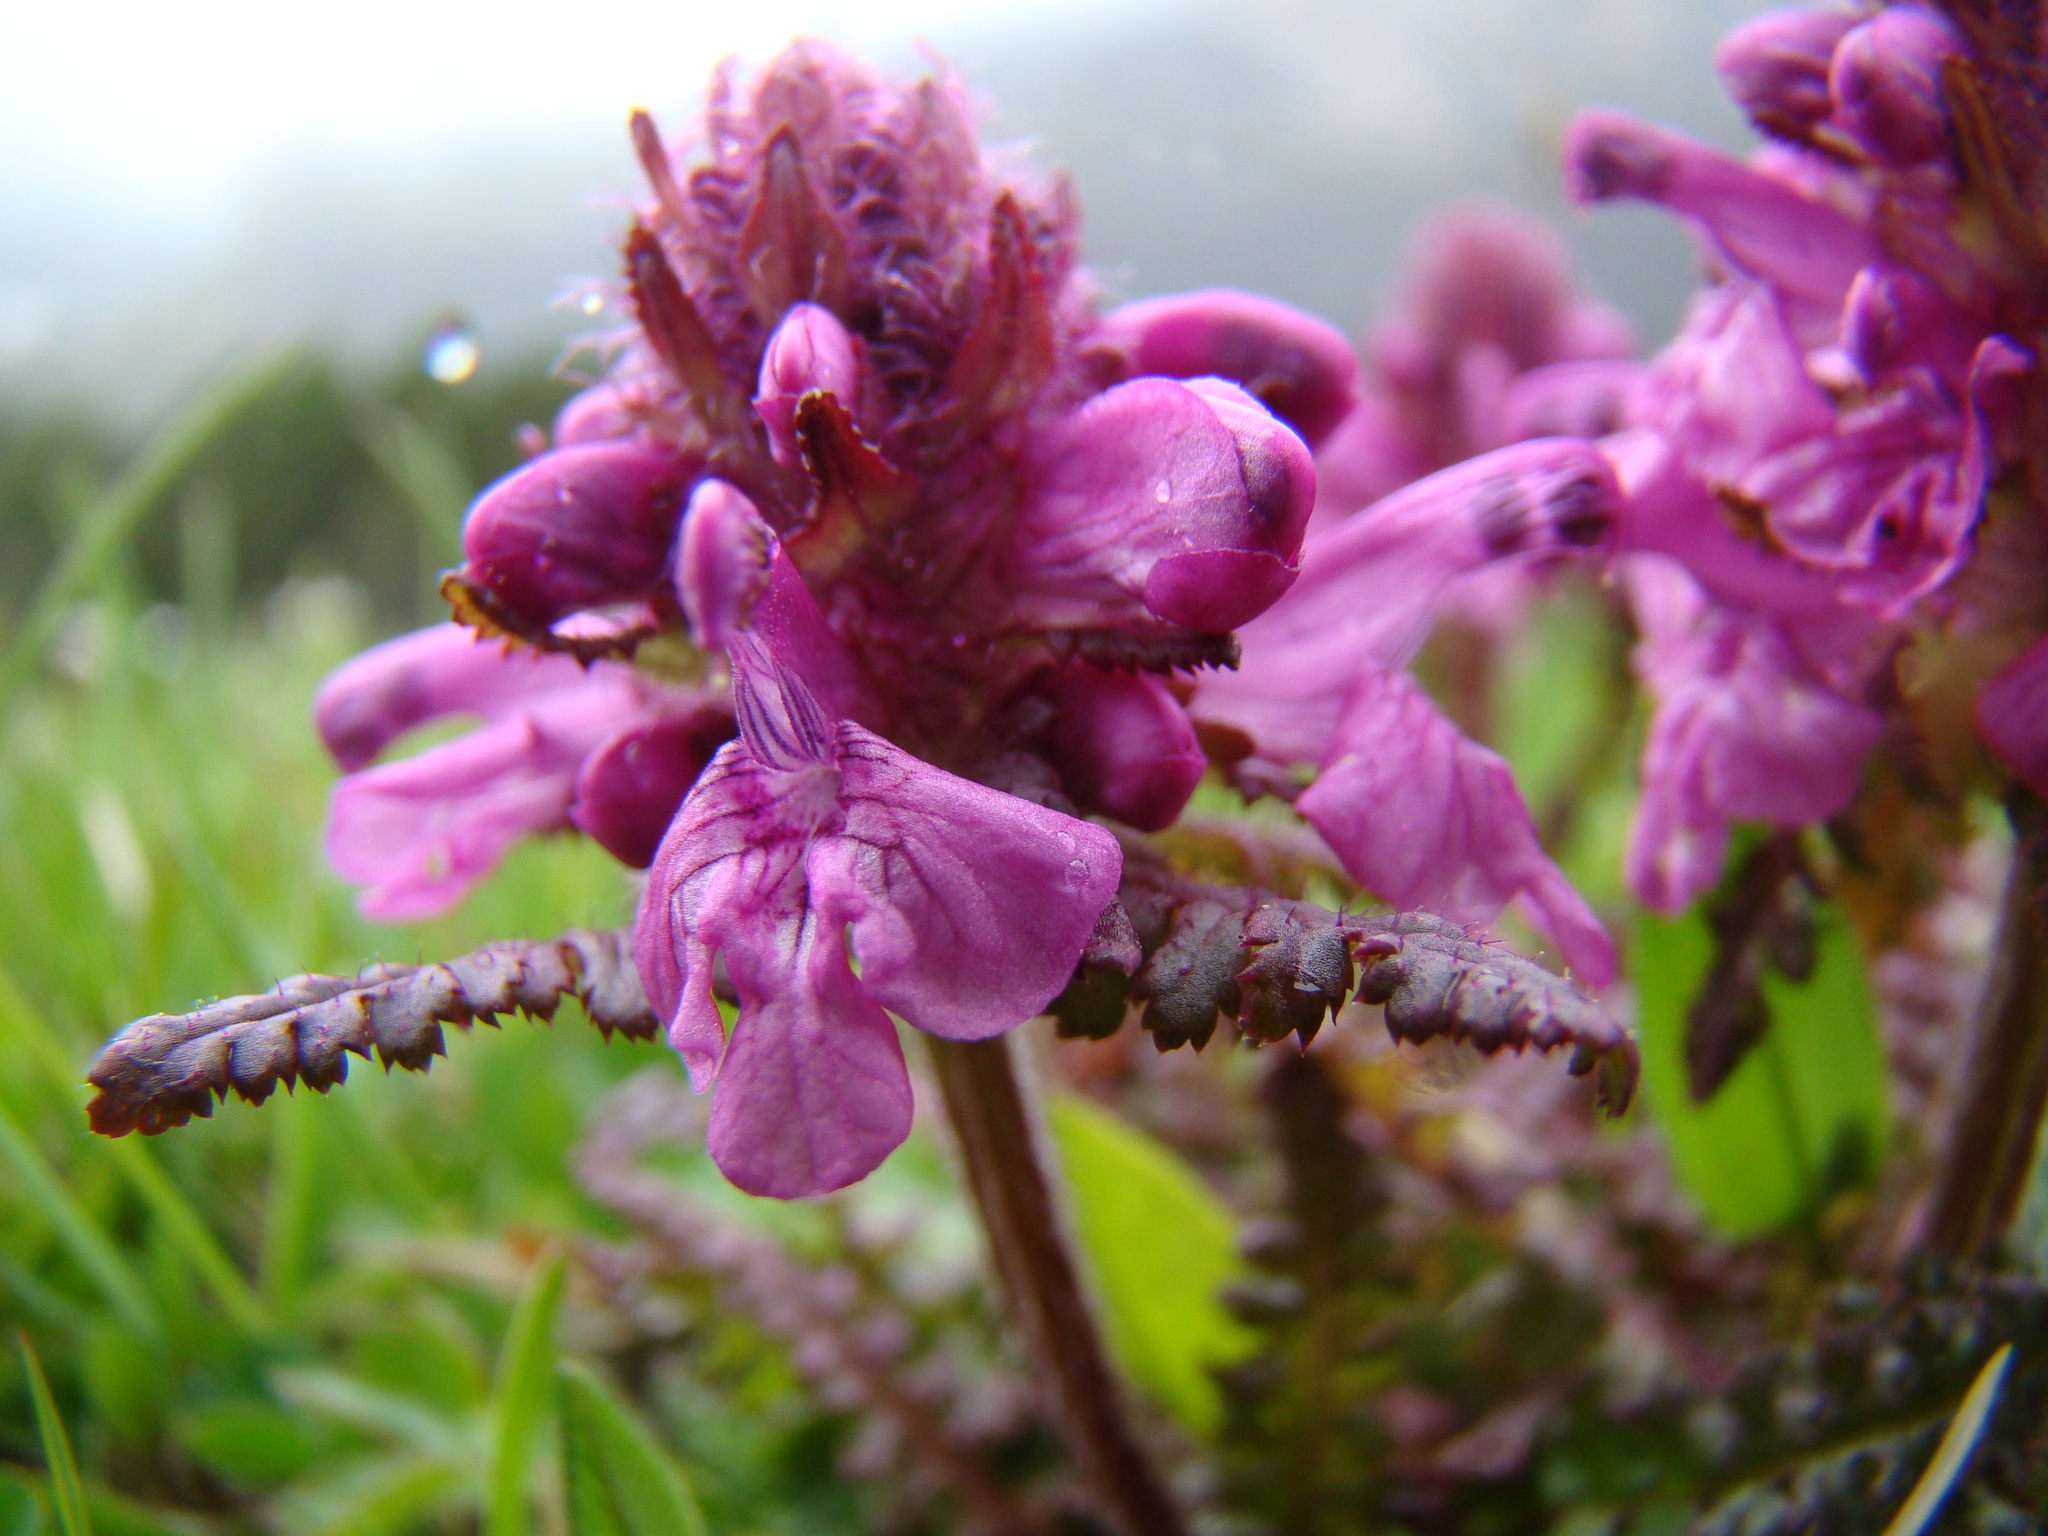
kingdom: Plantae
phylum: Tracheophyta
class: Magnoliopsida
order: Lamiales
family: Orobanchaceae
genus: Pedicularis
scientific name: Pedicularis verticillata
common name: Whorled lousewort
